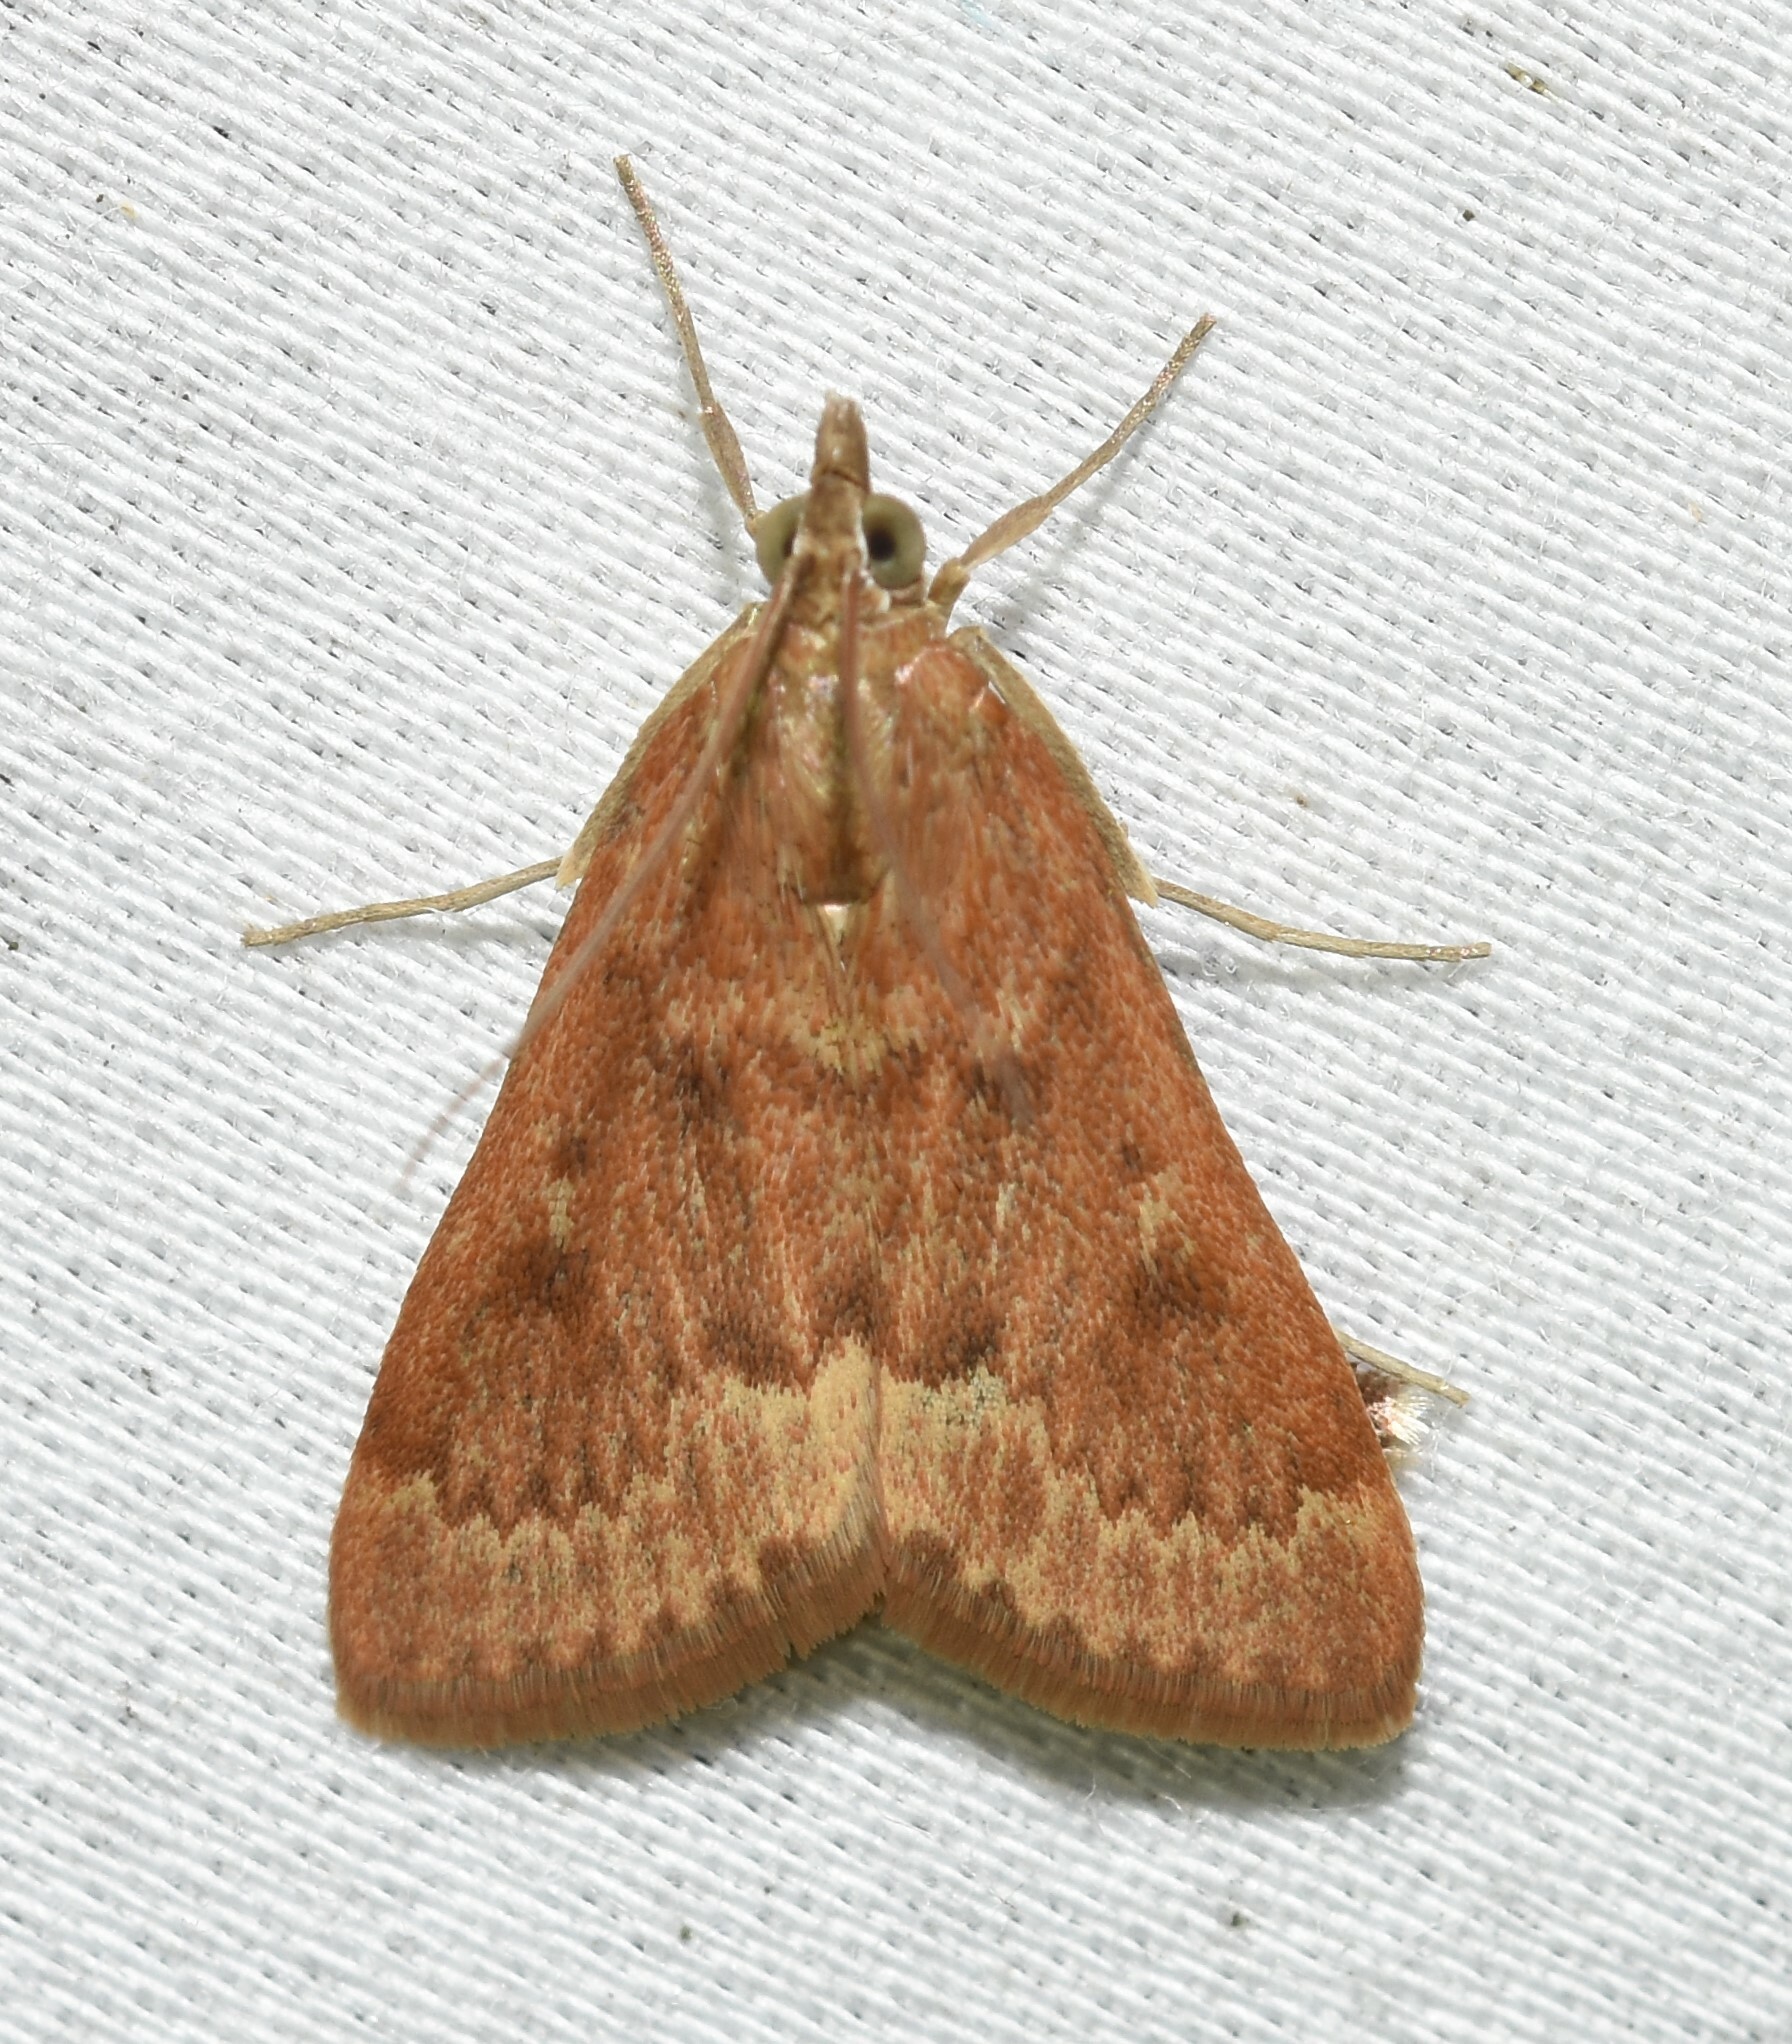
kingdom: Animalia
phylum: Arthropoda
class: Insecta
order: Lepidoptera
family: Crambidae
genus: Achyra
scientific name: Achyra rantalis
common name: Garden webworm
